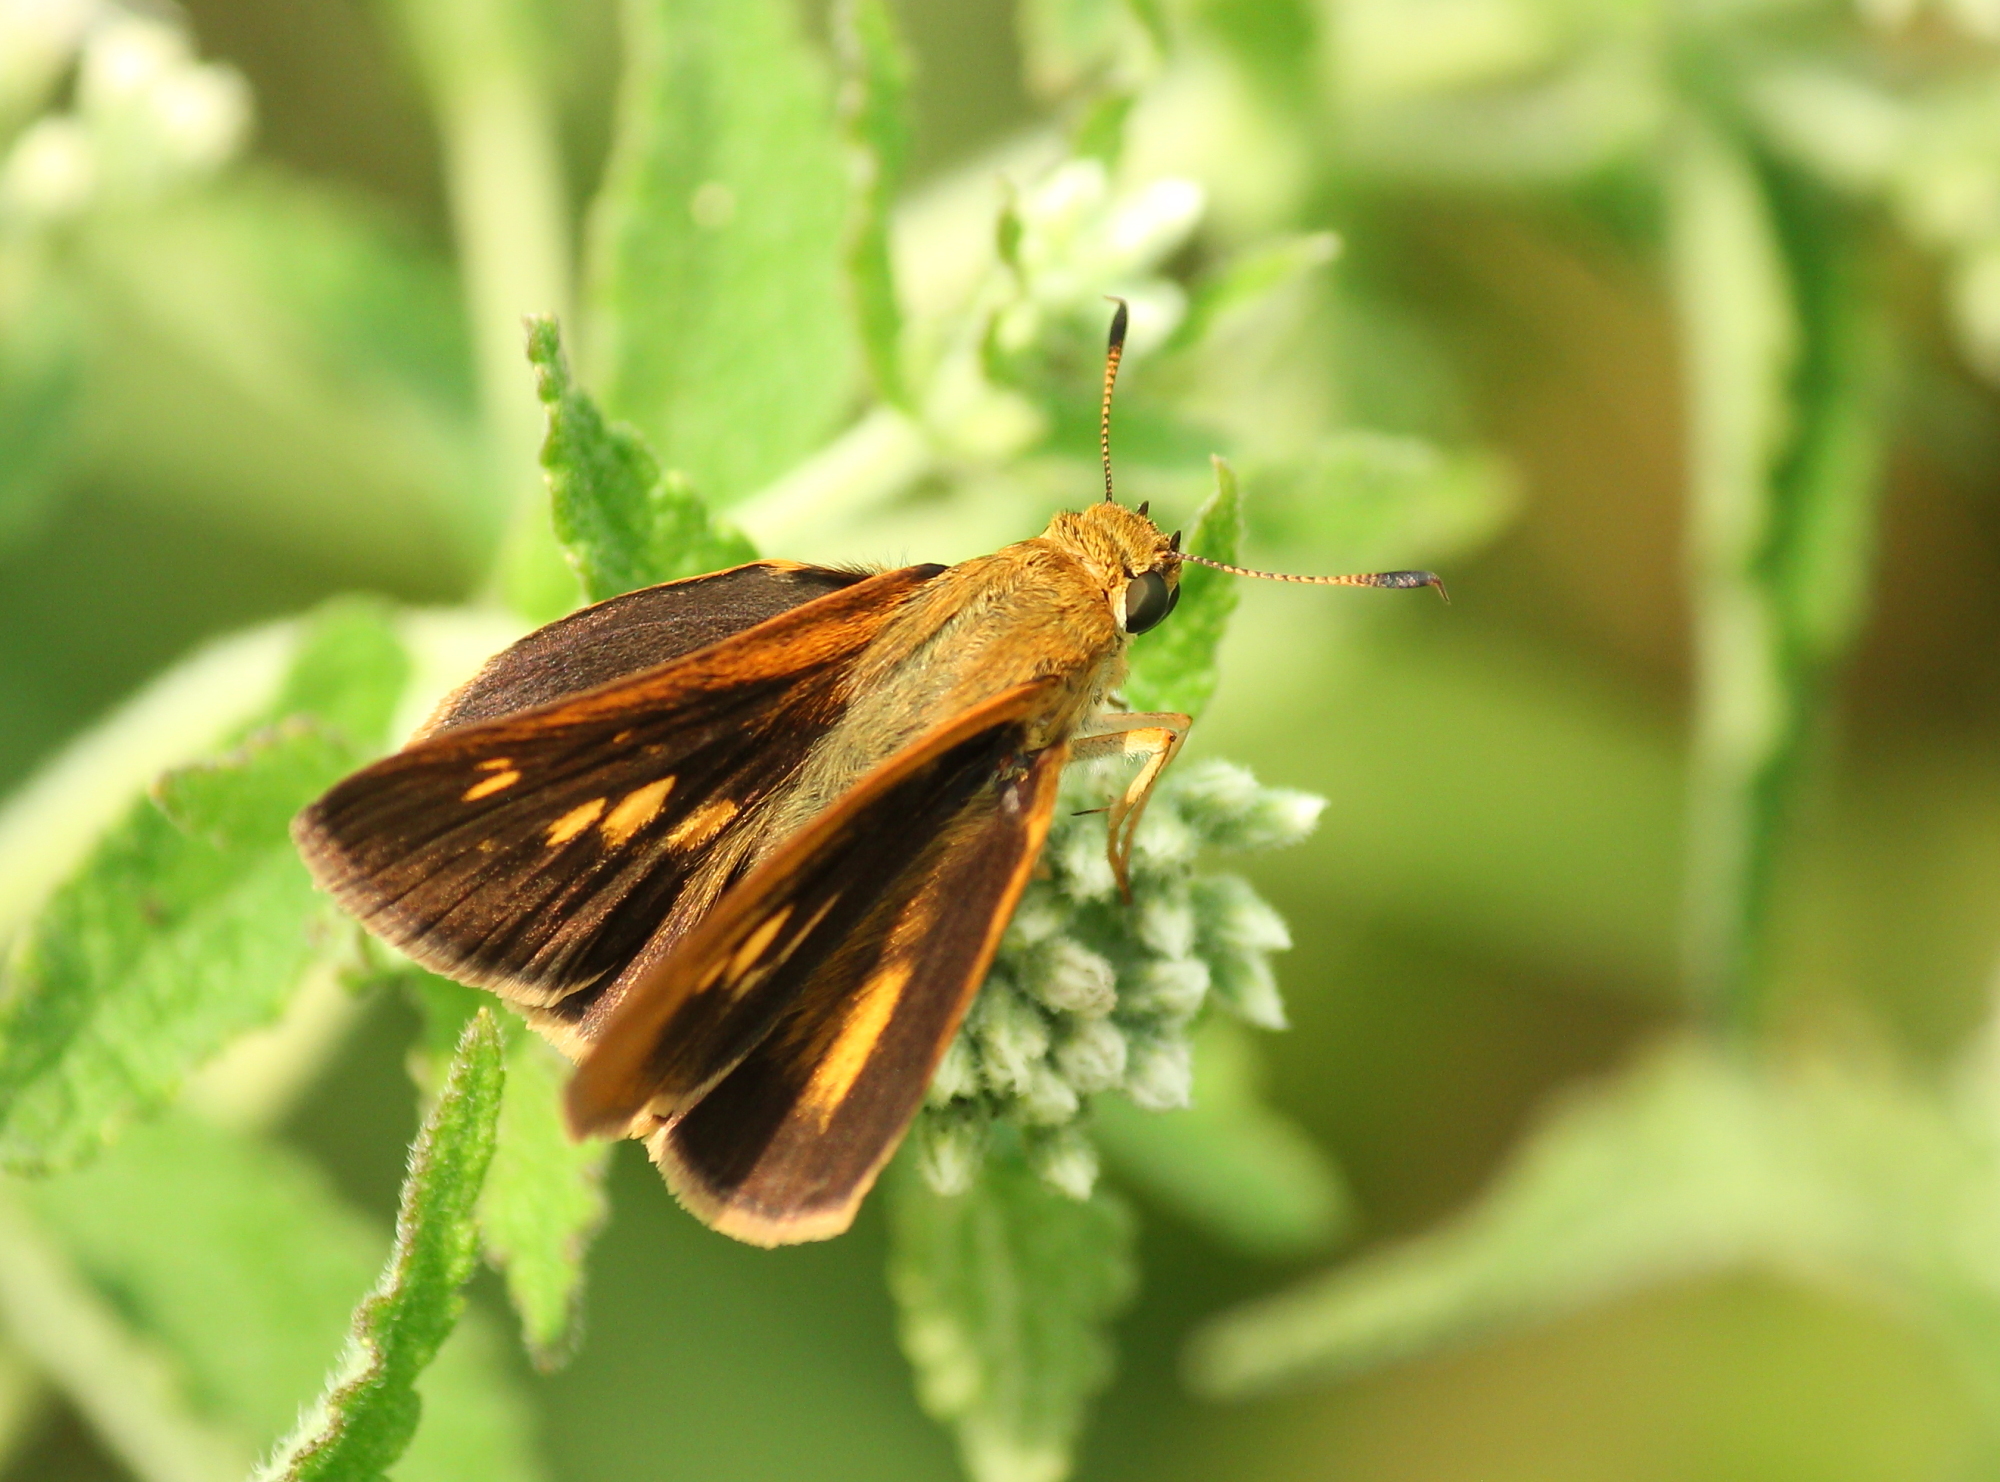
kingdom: Animalia
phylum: Arthropoda
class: Insecta
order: Lepidoptera
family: Hesperiidae
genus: Euphyes
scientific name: Euphyes dion
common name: Dion skipper
